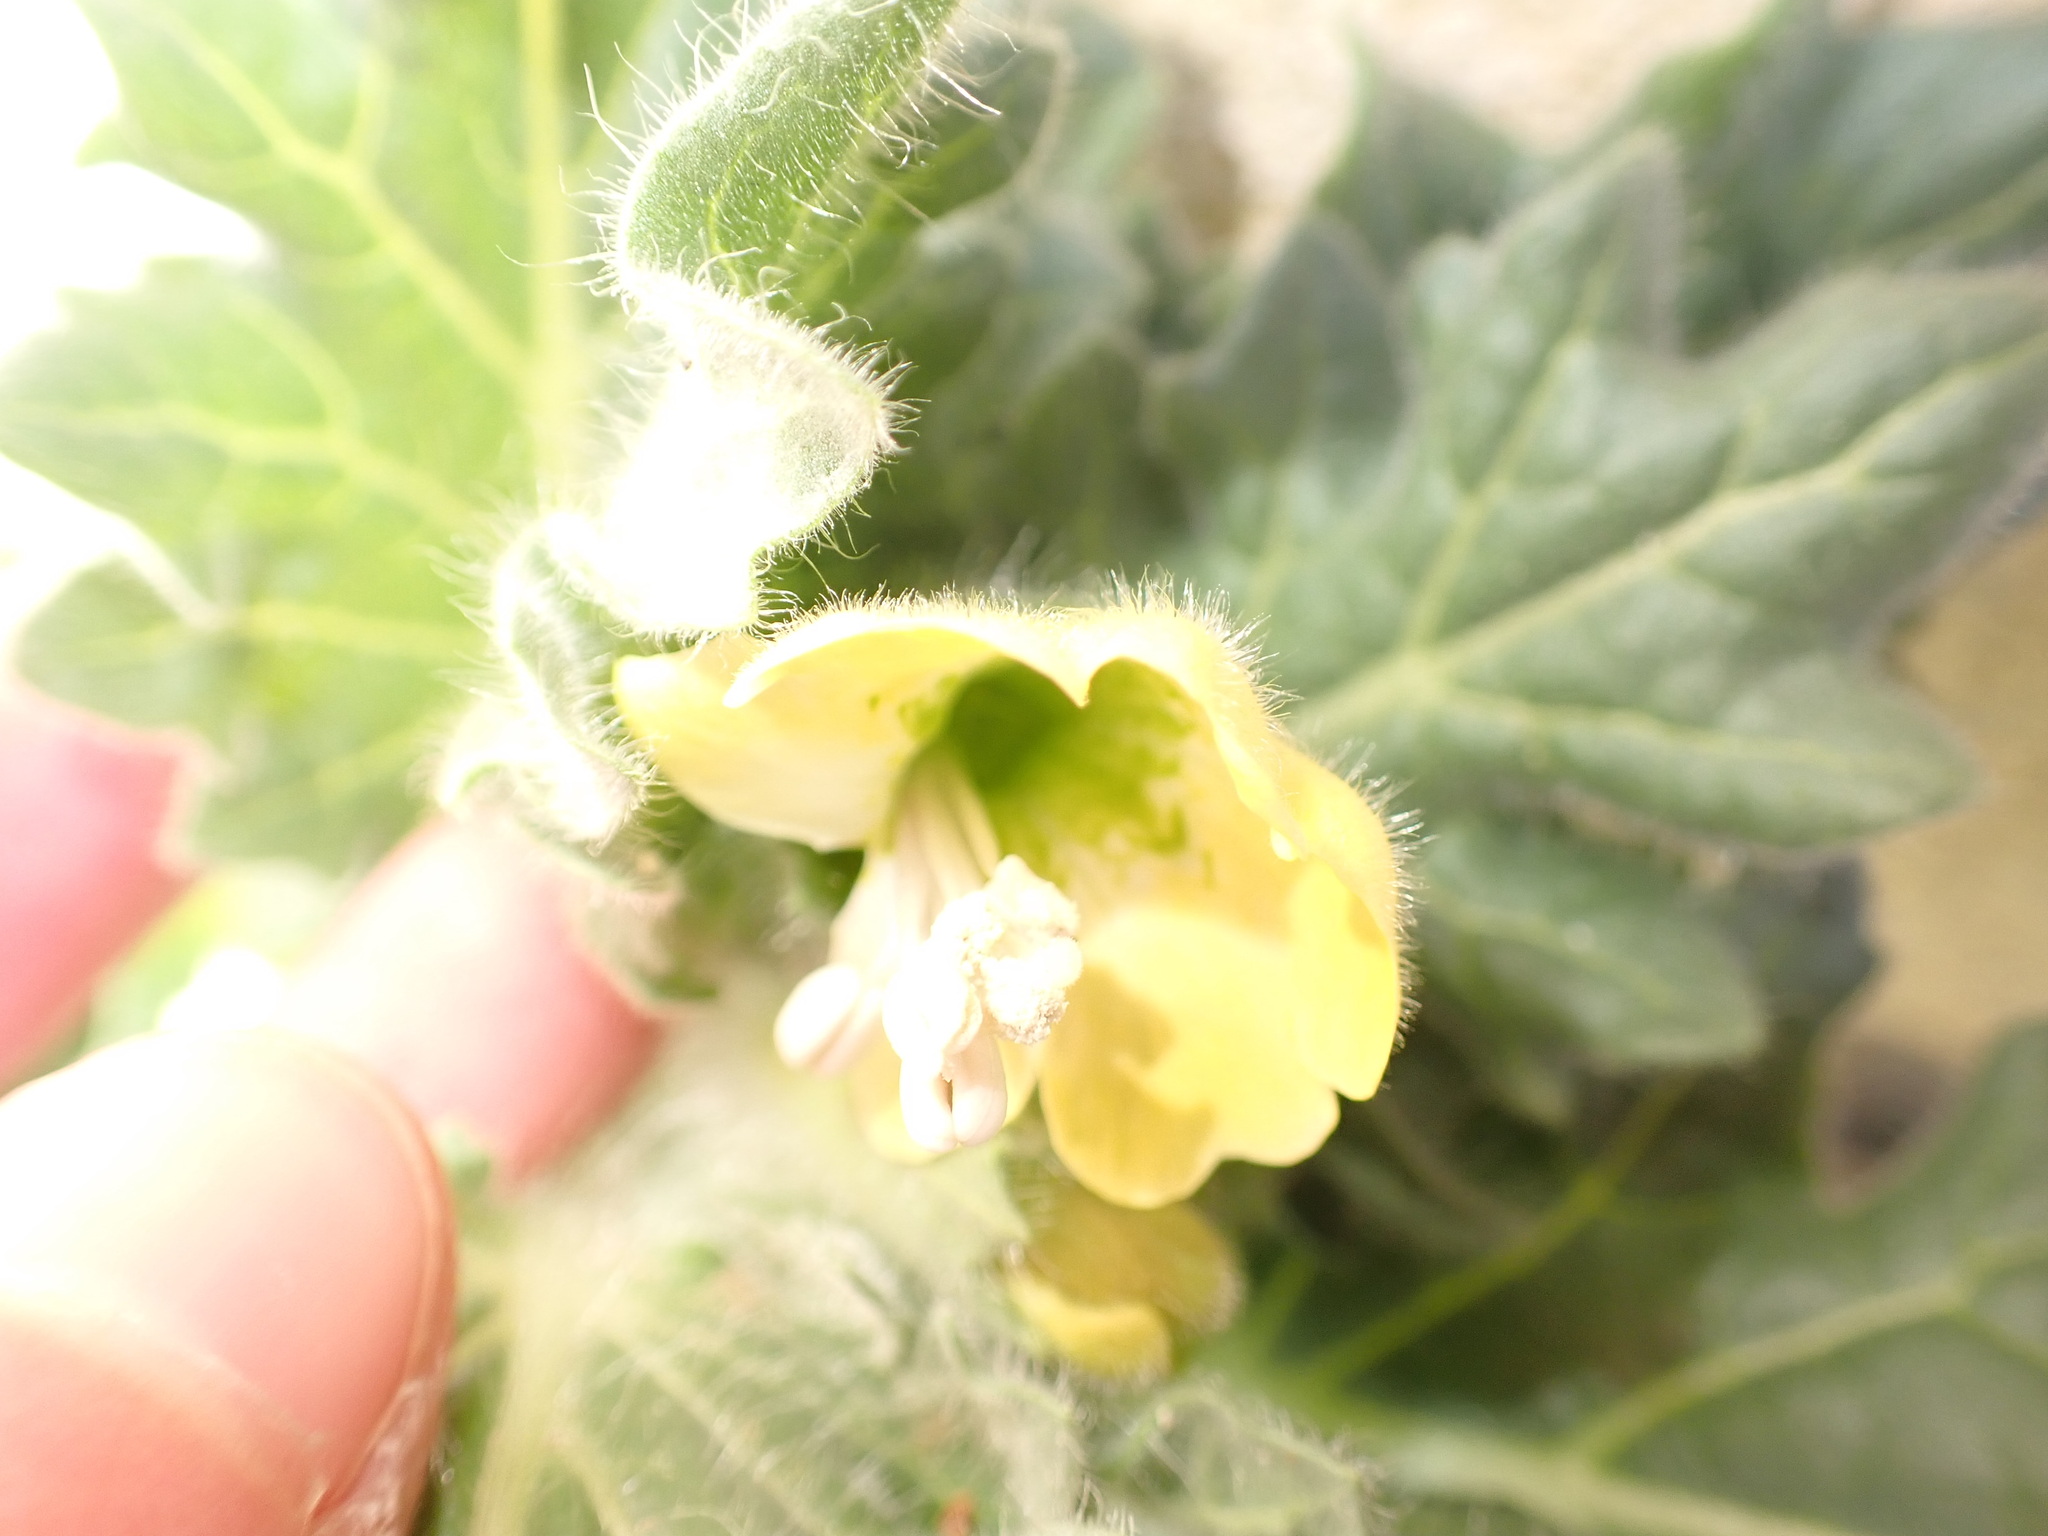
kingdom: Plantae
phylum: Tracheophyta
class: Magnoliopsida
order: Solanales
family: Solanaceae
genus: Hyoscyamus
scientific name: Hyoscyamus albus
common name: White henbane
